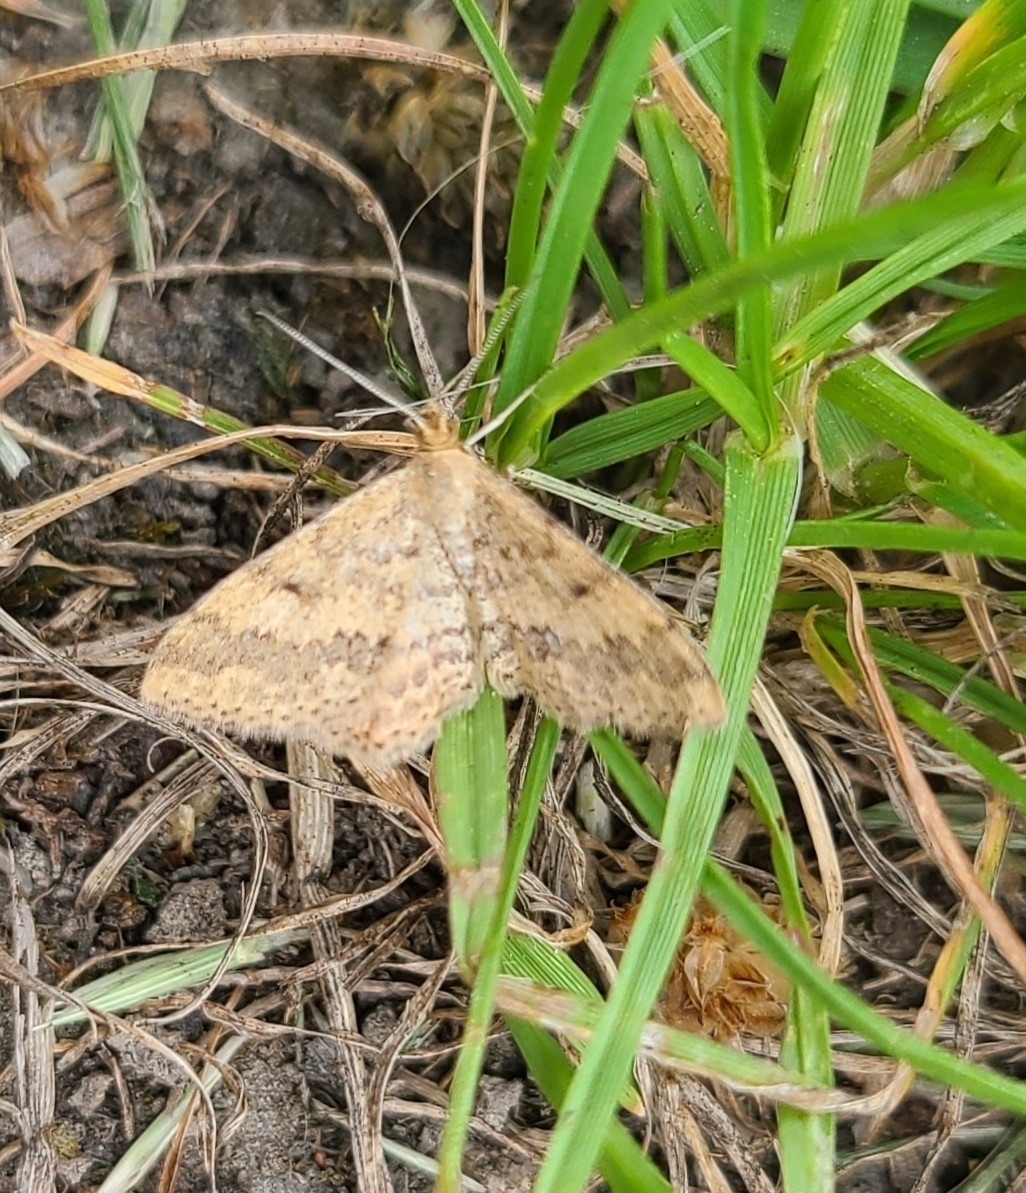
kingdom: Animalia
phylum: Arthropoda
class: Insecta
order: Lepidoptera
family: Geometridae
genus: Scopula
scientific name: Scopula rubraria
